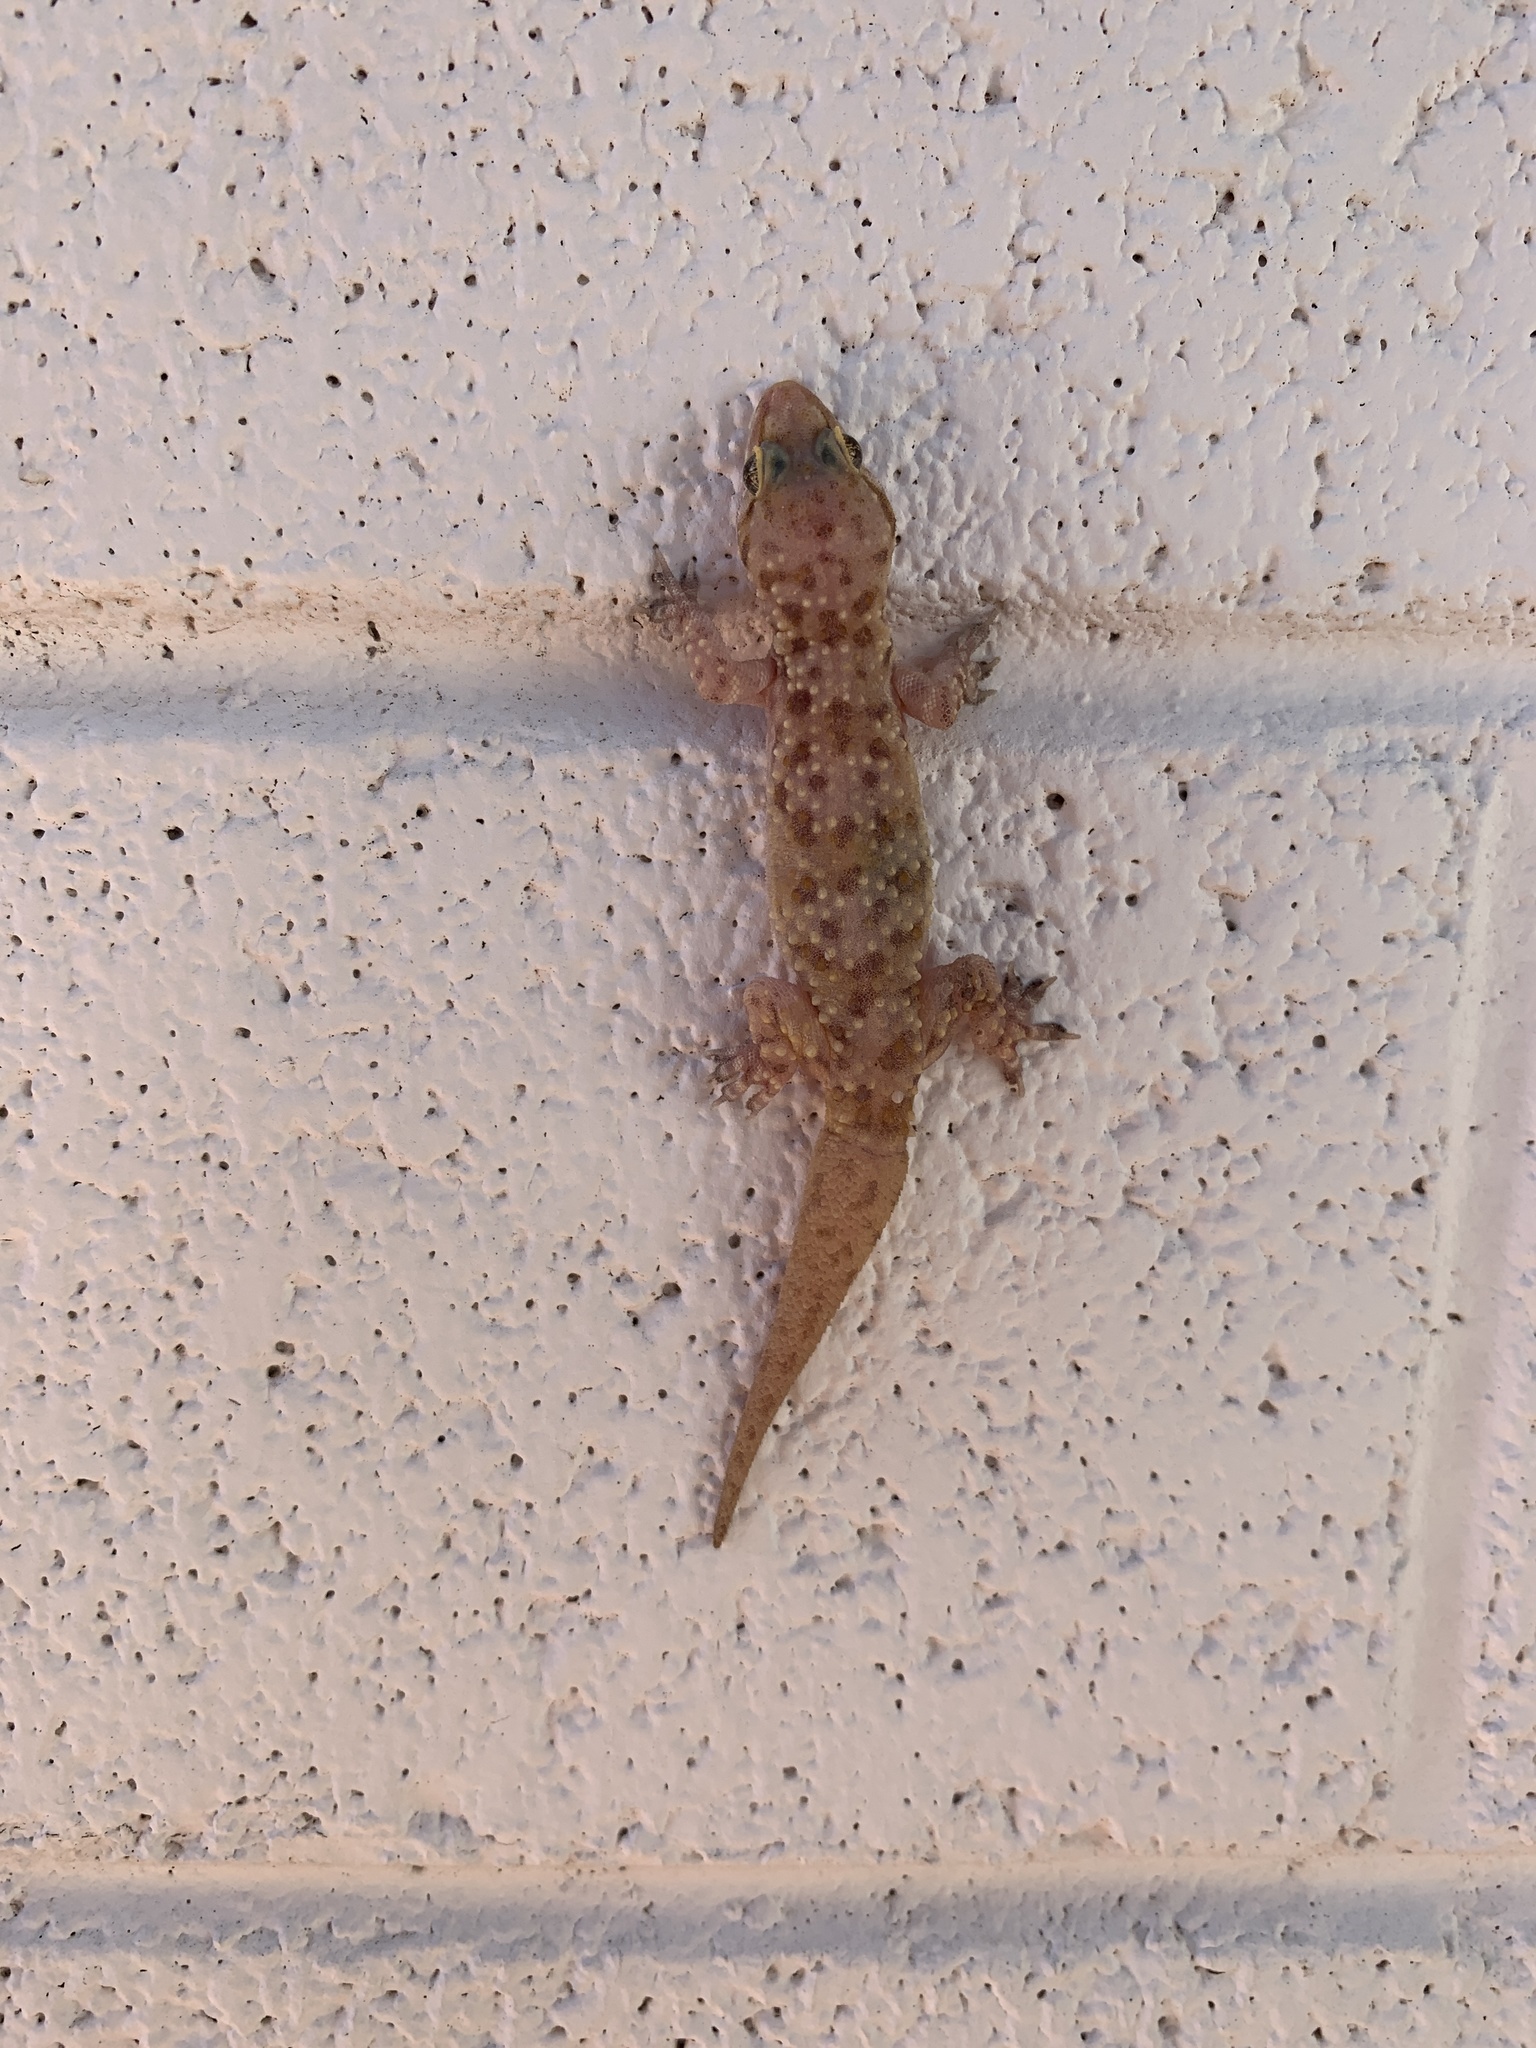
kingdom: Animalia
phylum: Chordata
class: Squamata
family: Gekkonidae
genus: Hemidactylus
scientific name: Hemidactylus turcicus
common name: Turkish gecko
